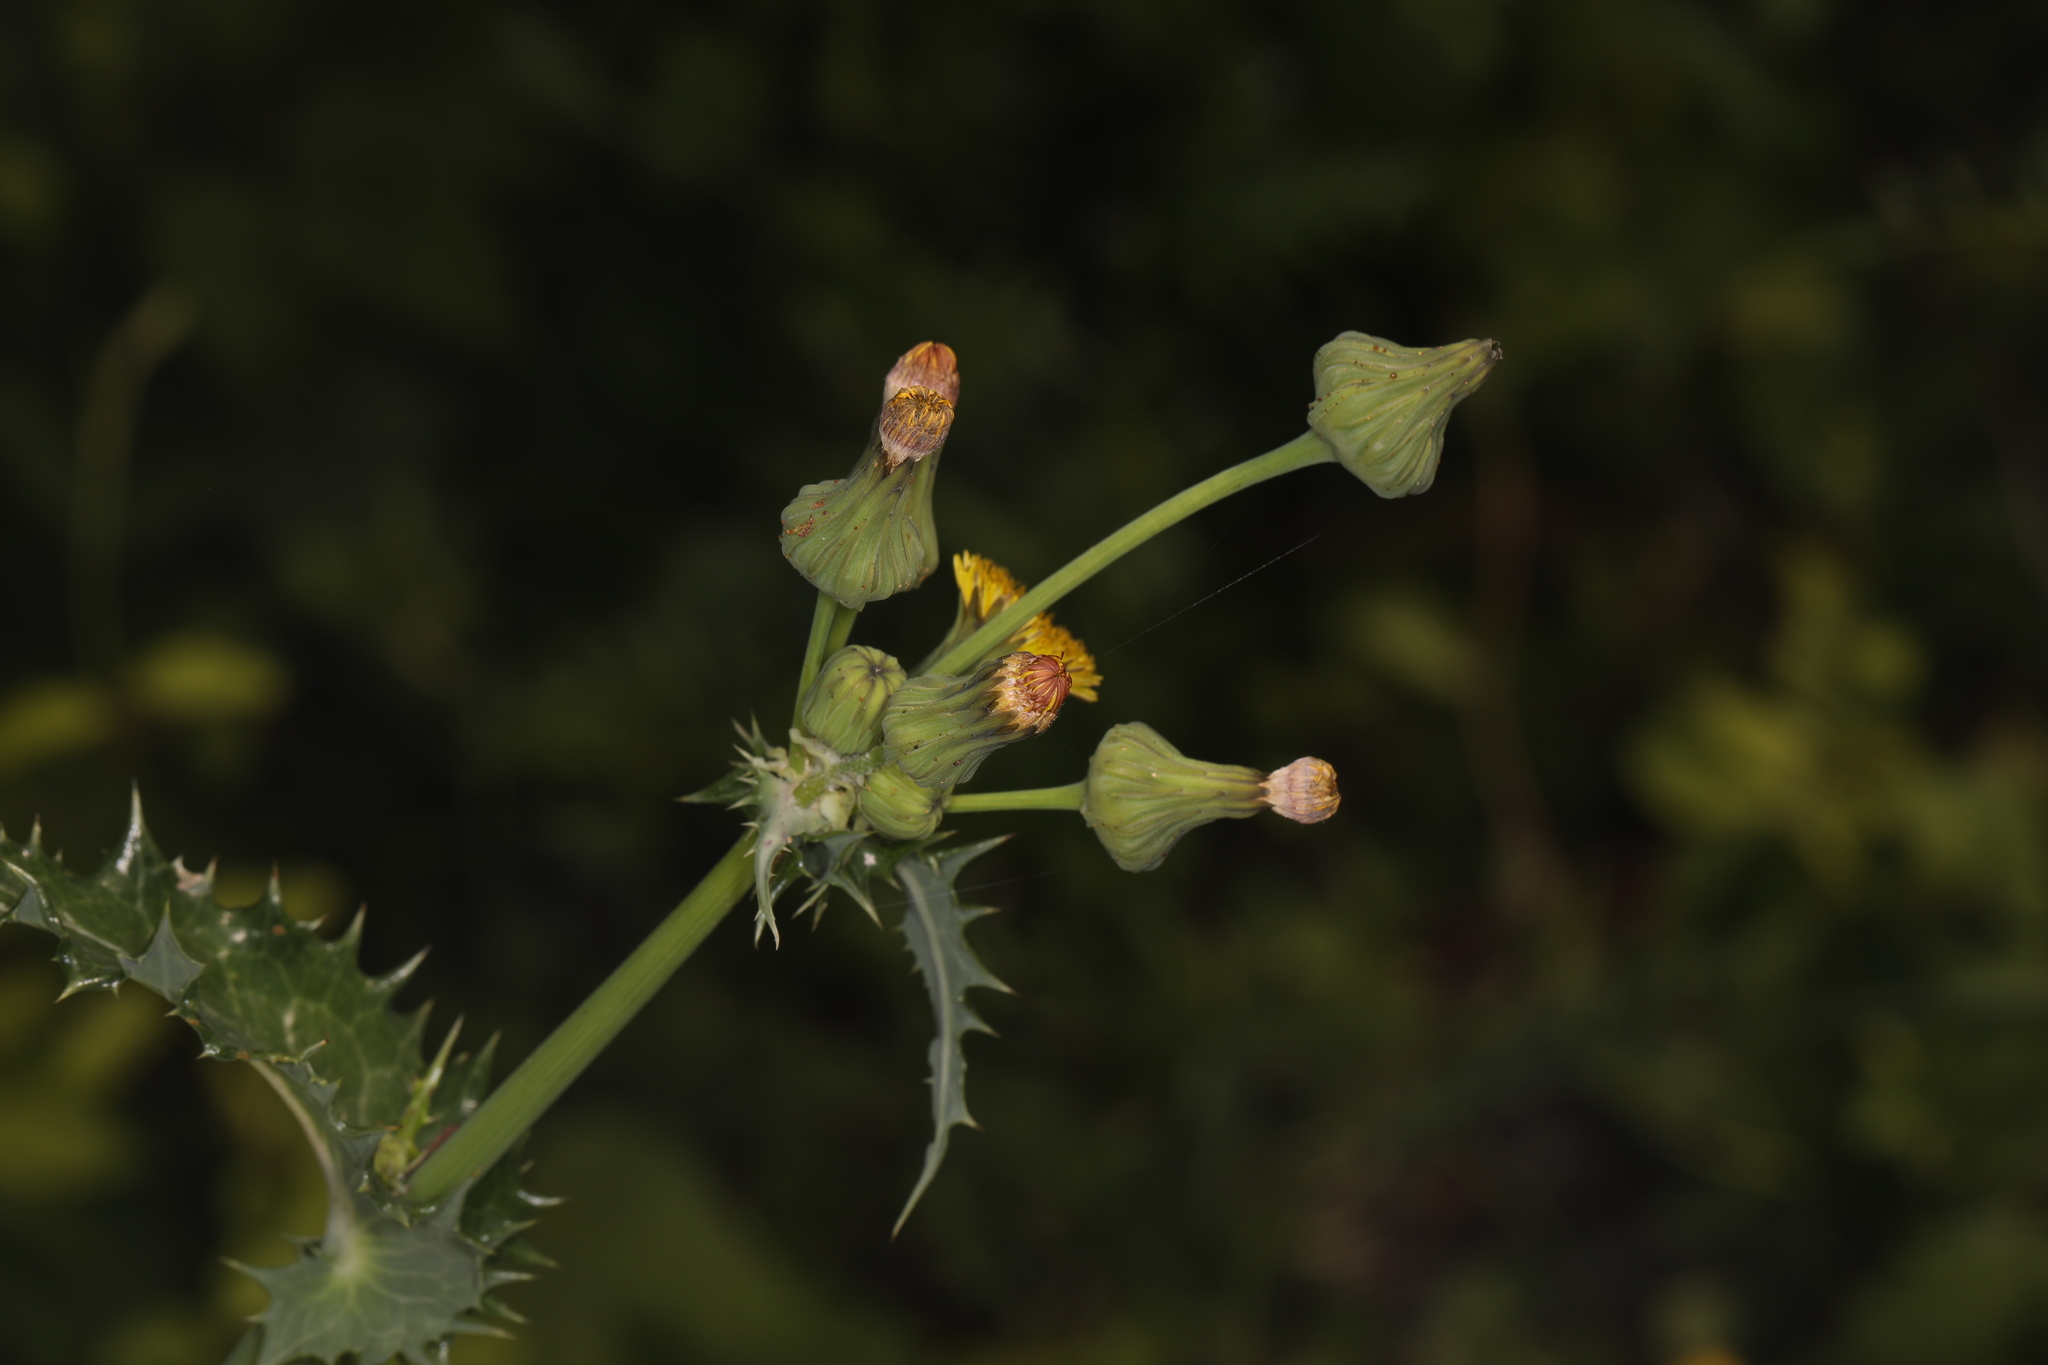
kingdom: Plantae
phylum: Tracheophyta
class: Magnoliopsida
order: Asterales
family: Asteraceae
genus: Sonchus
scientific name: Sonchus asper
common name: Prickly sow-thistle
